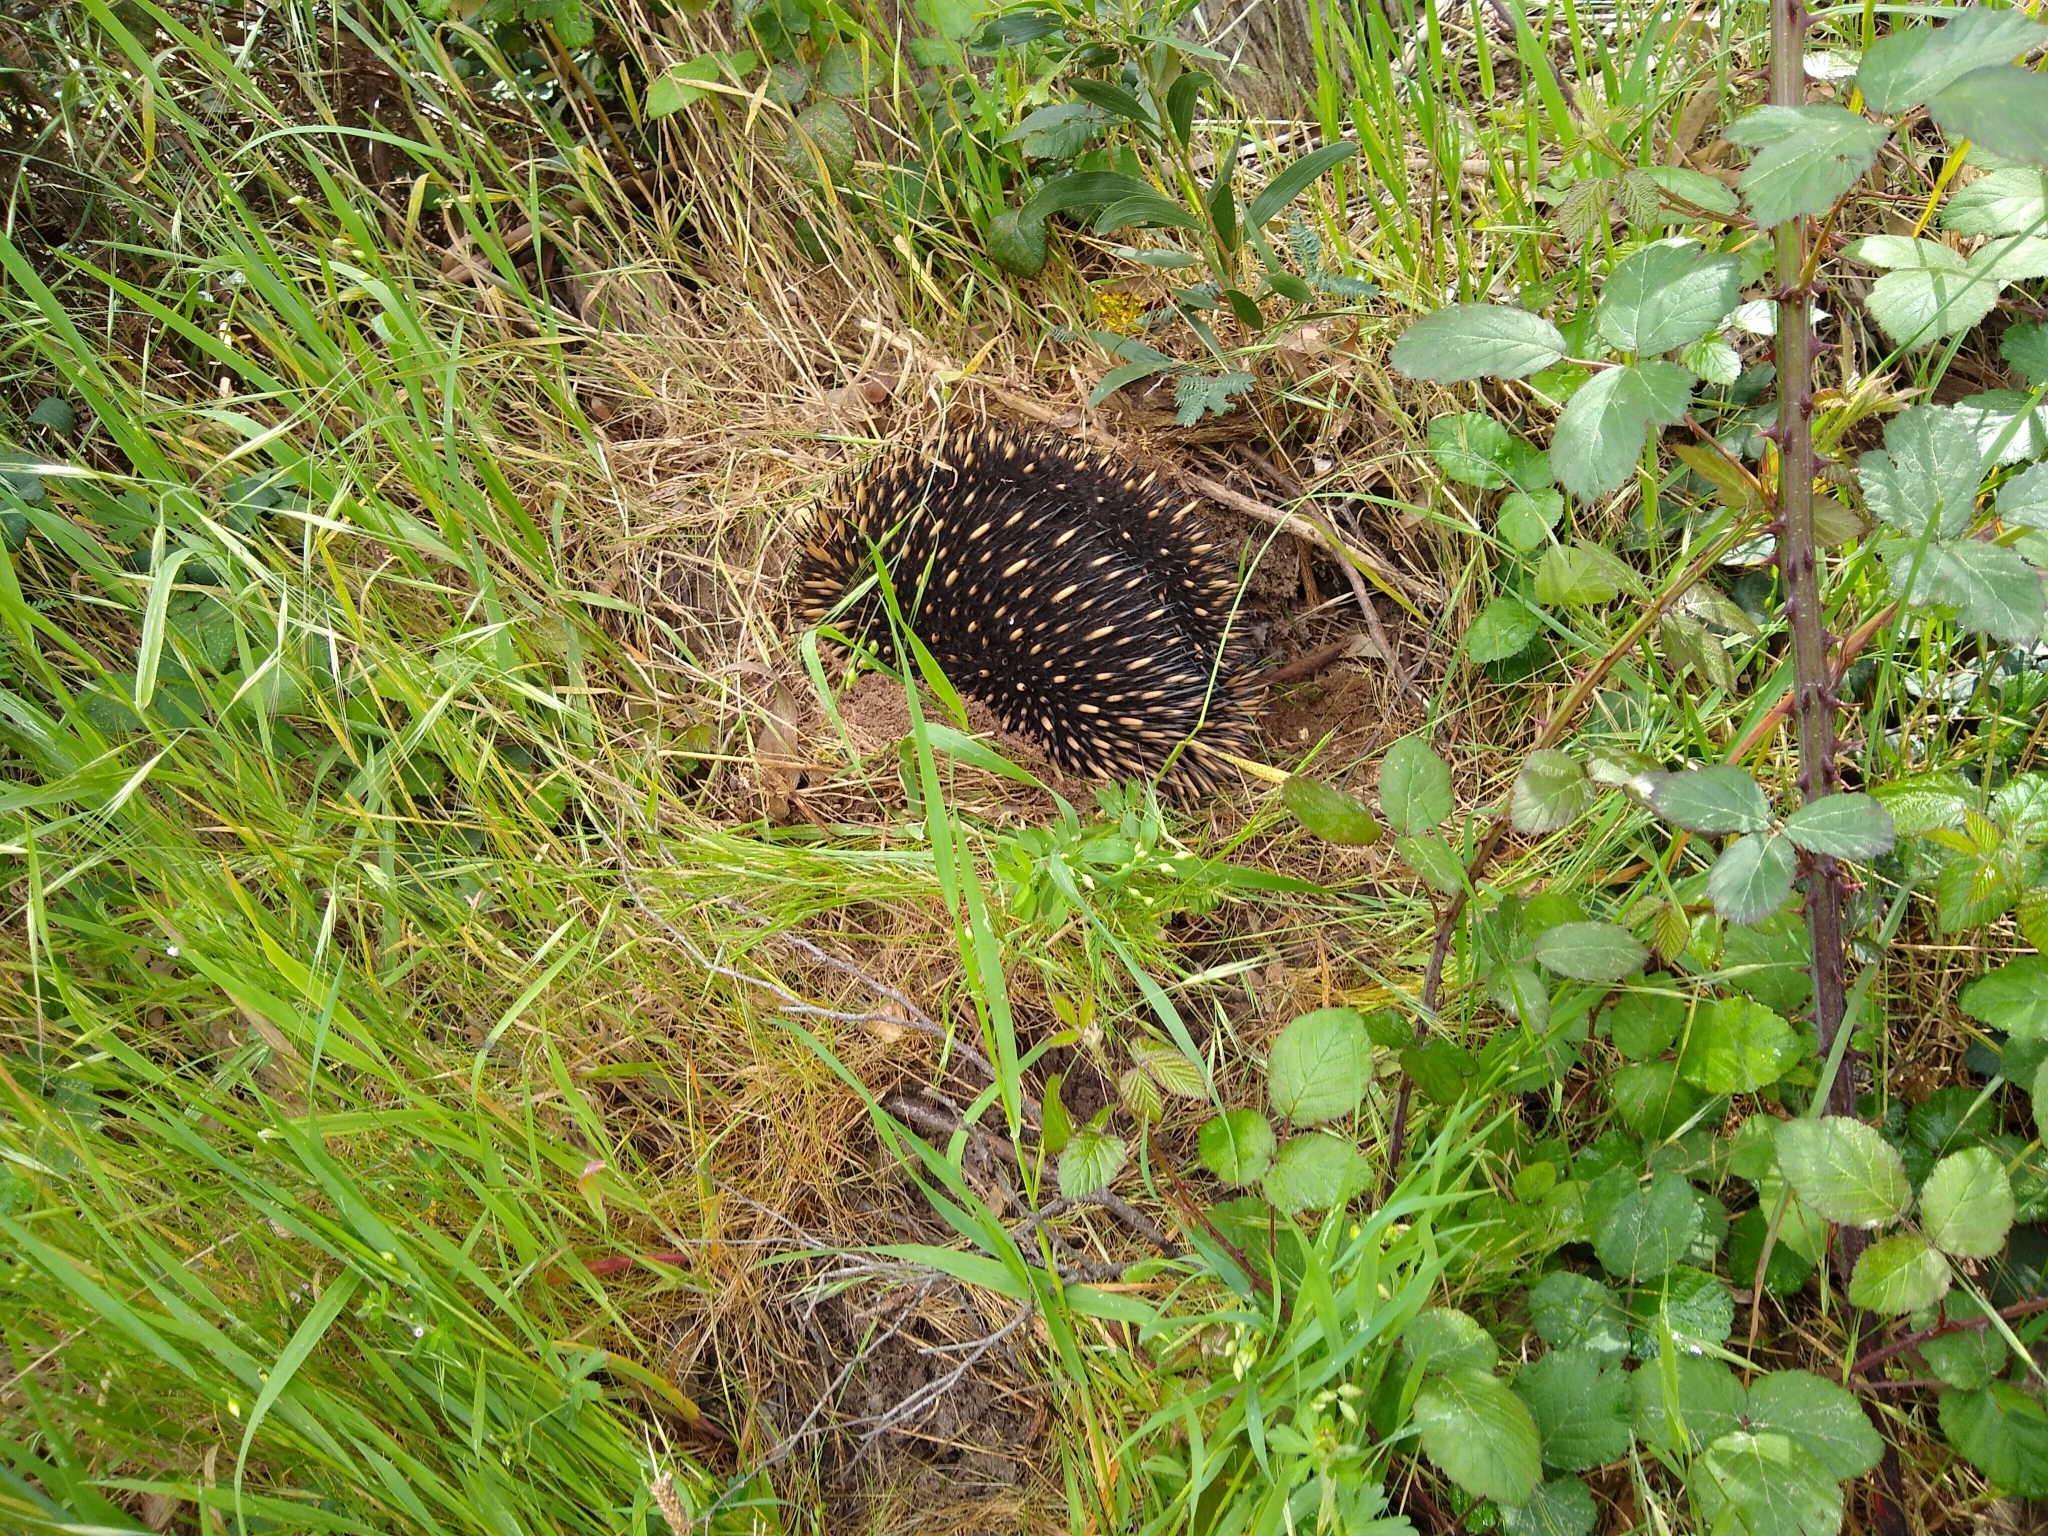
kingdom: Animalia
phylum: Chordata
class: Mammalia
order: Monotremata
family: Tachyglossidae
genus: Tachyglossus
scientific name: Tachyglossus aculeatus
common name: Short-beaked echidna
